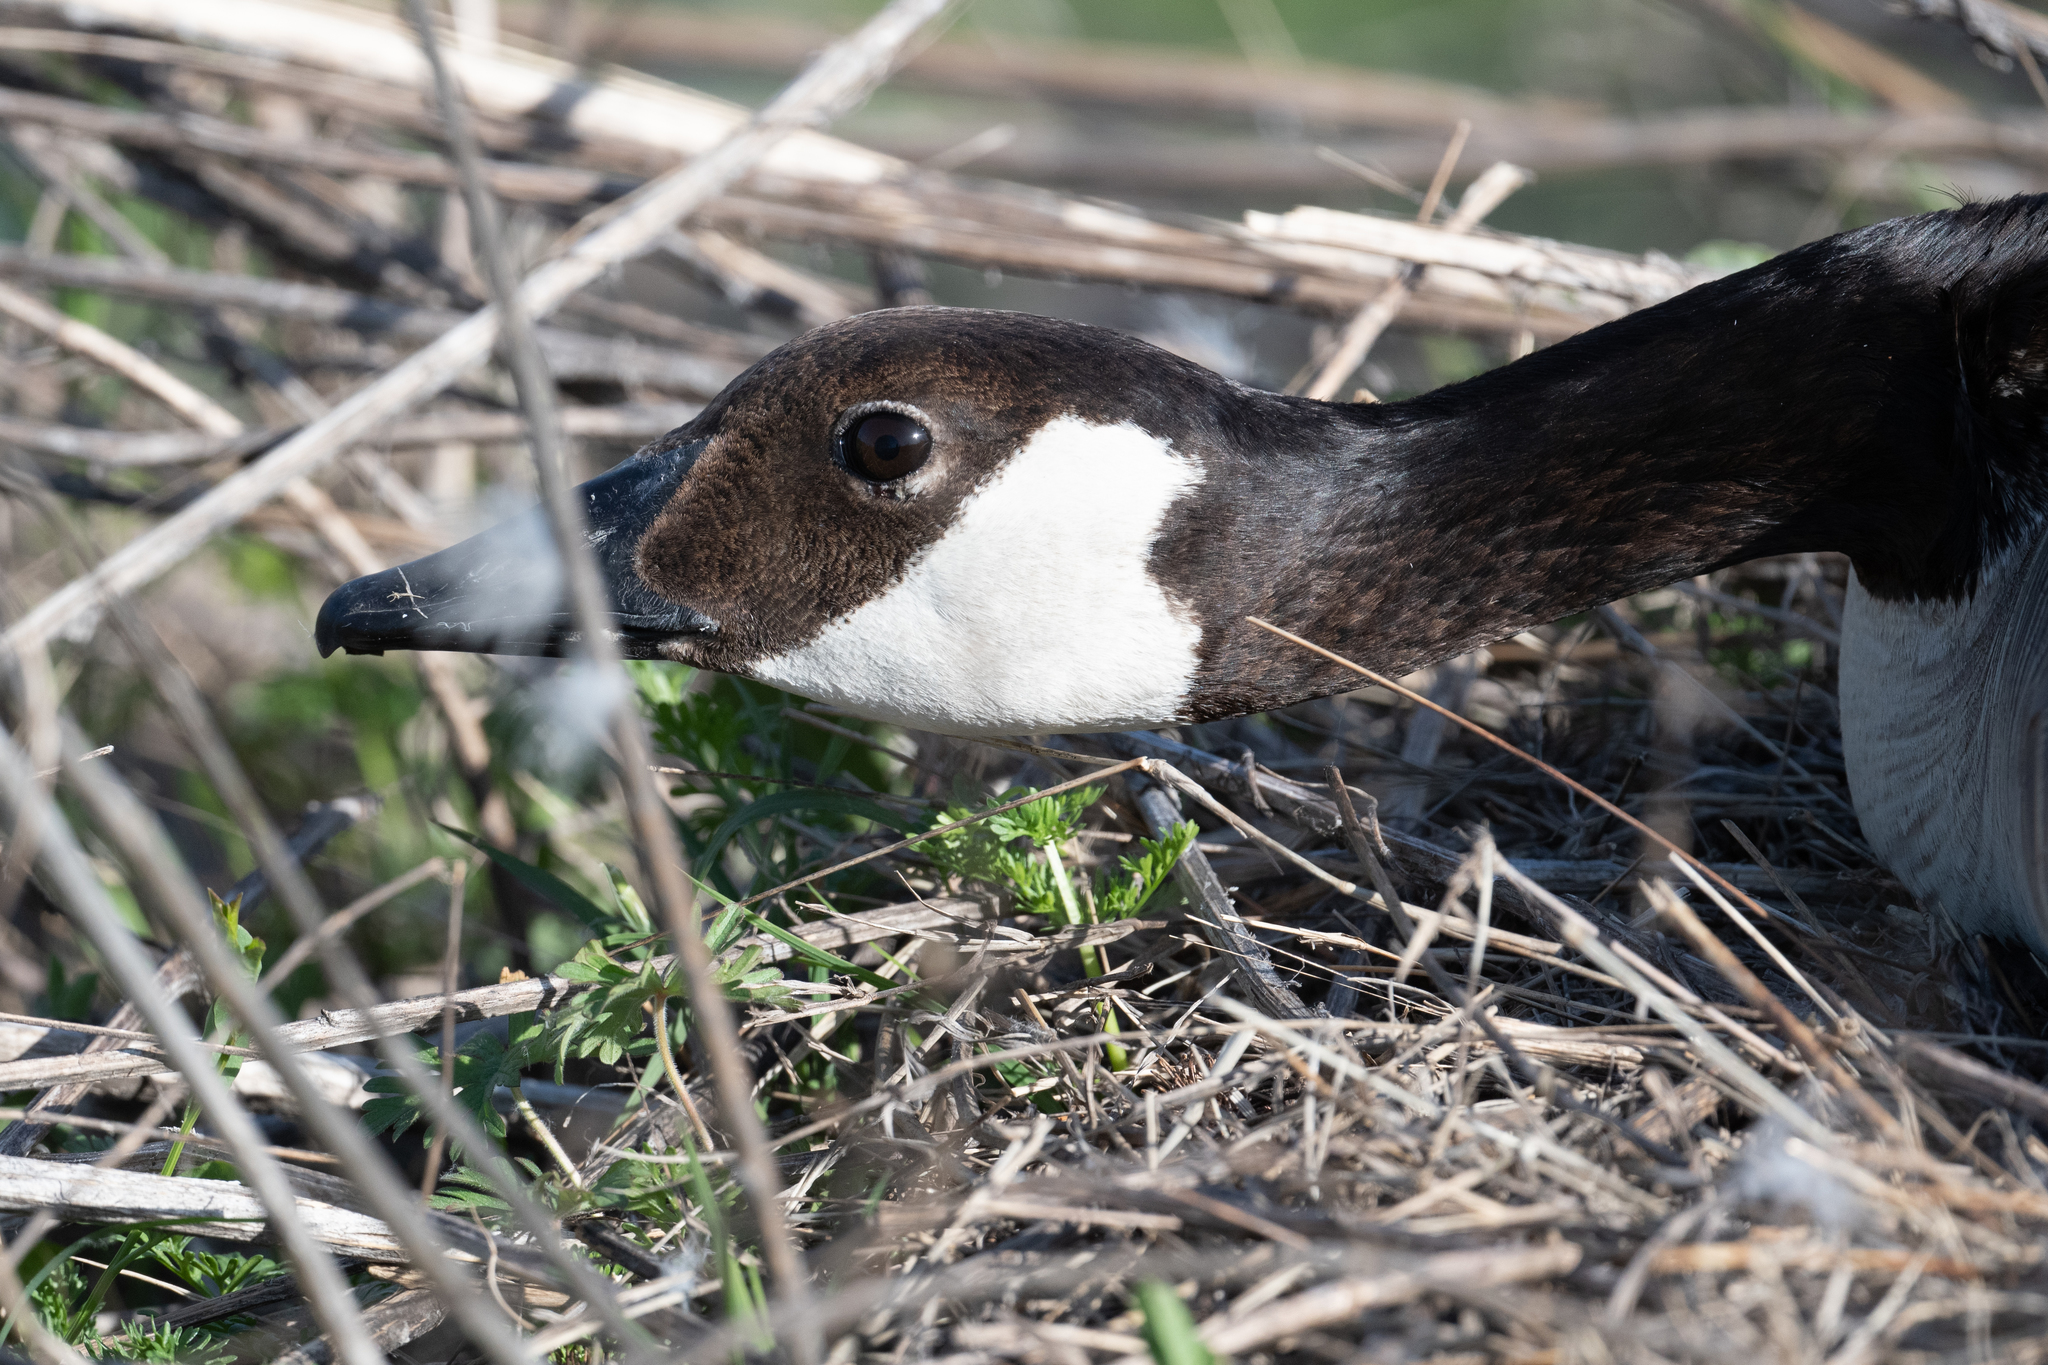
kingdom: Animalia
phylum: Chordata
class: Aves
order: Anseriformes
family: Anatidae
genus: Branta
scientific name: Branta canadensis
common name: Canada goose
